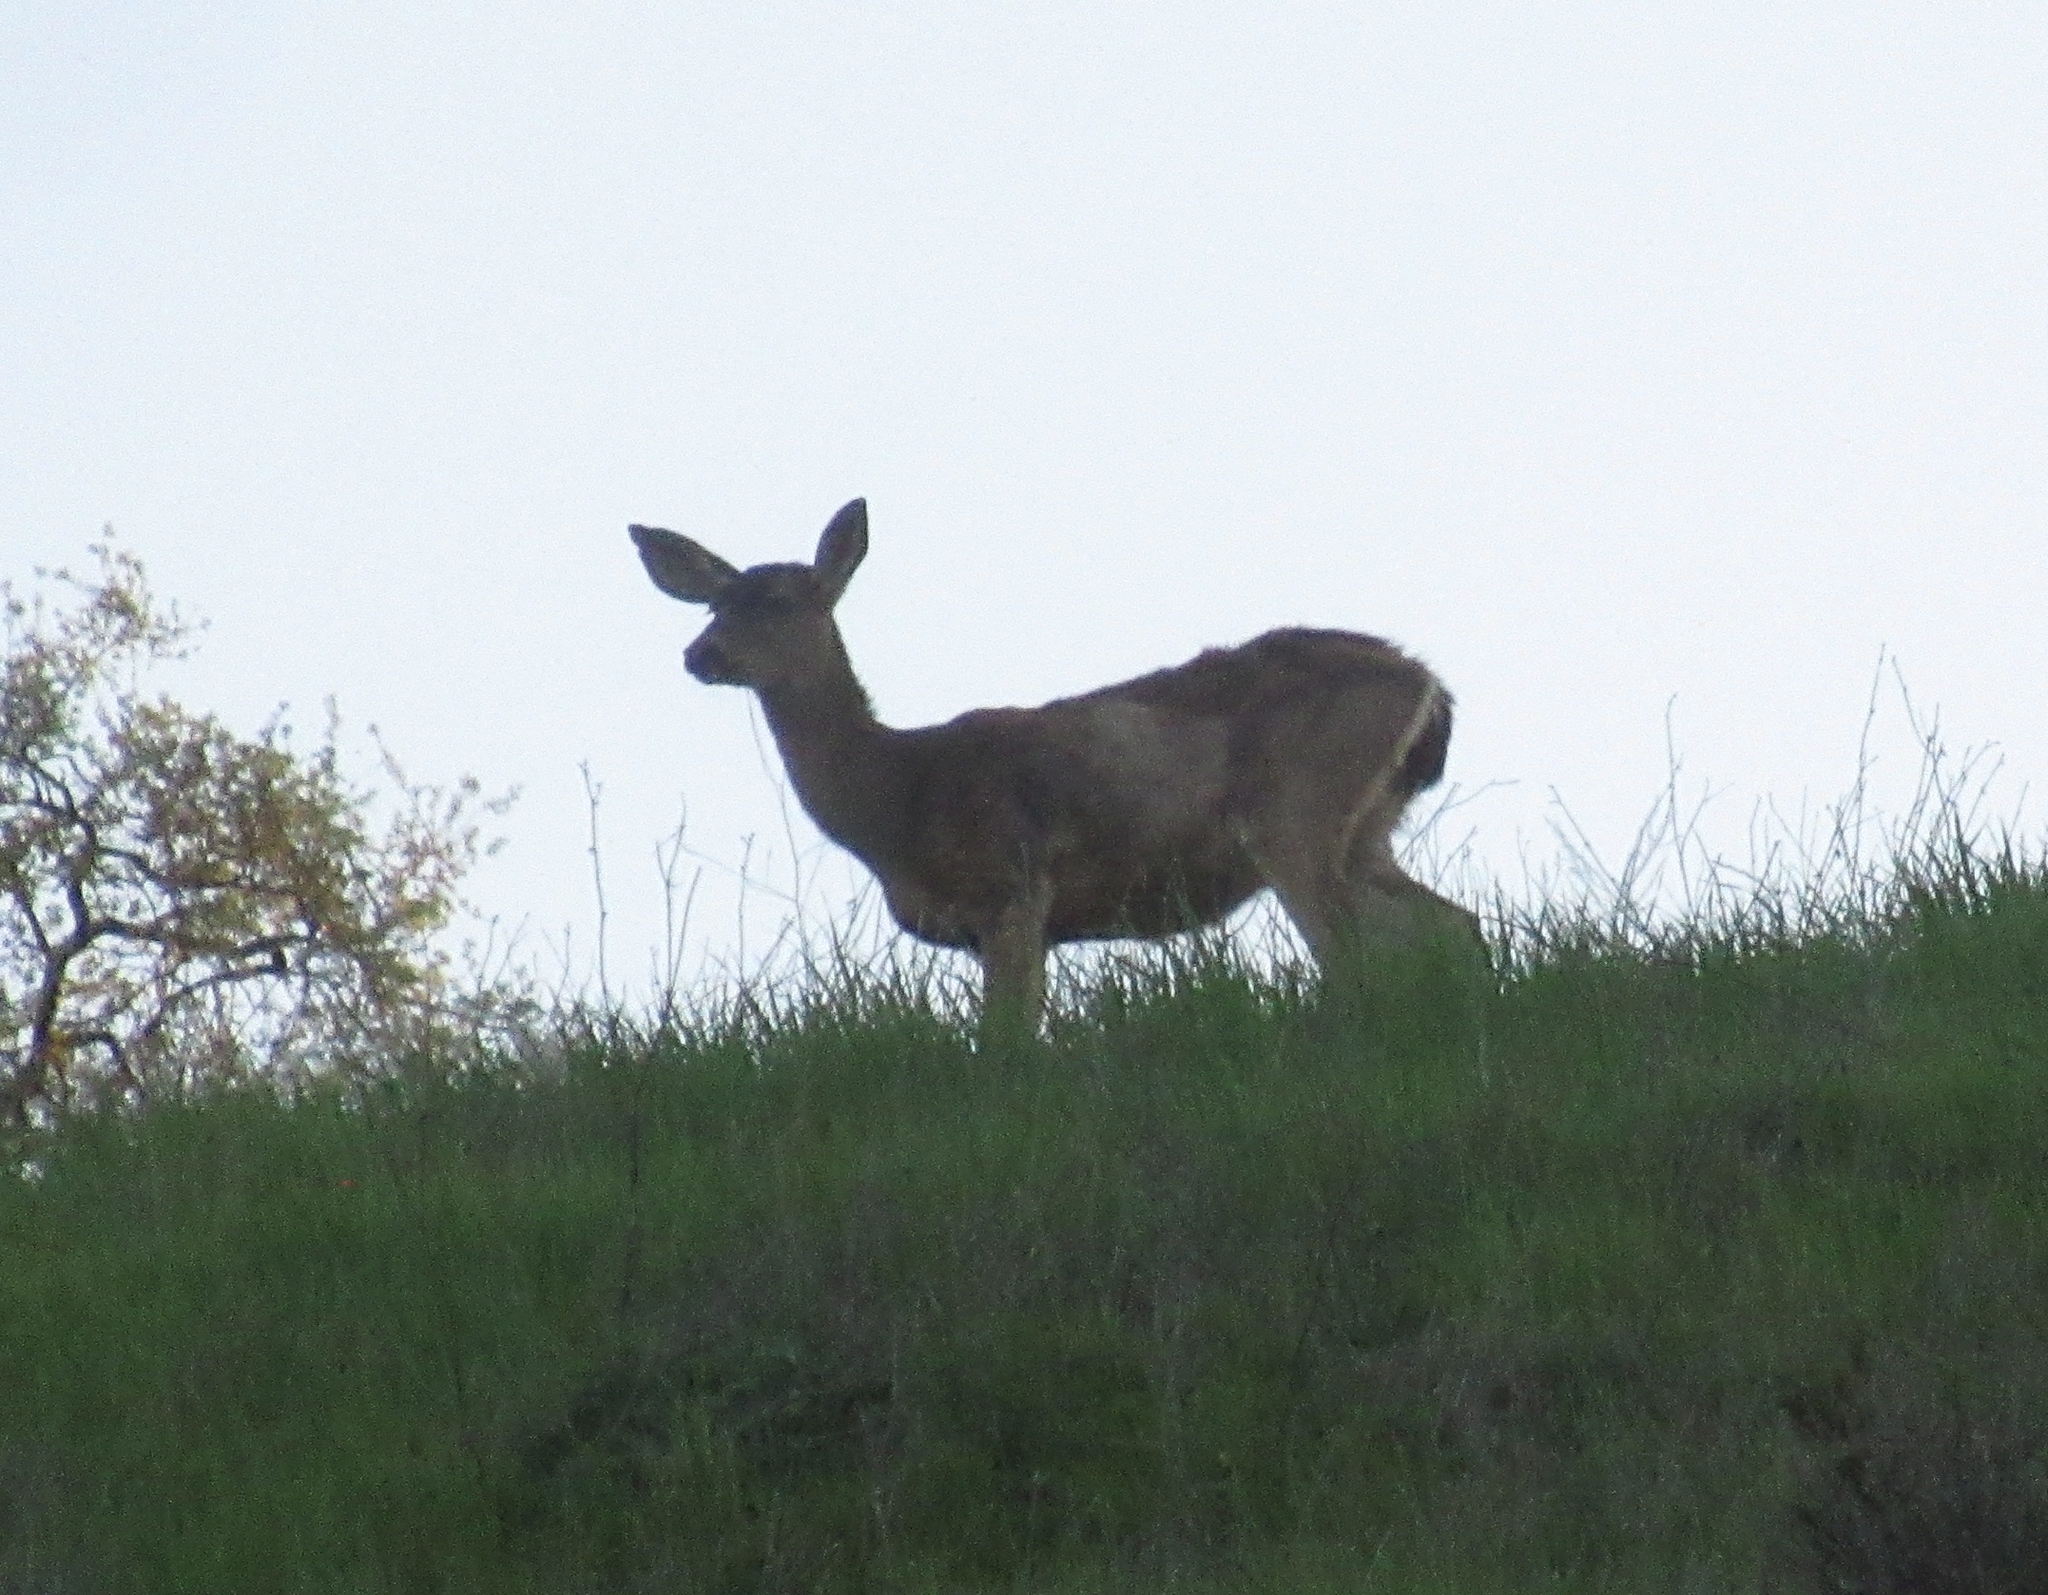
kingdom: Animalia
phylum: Chordata
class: Mammalia
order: Artiodactyla
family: Cervidae
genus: Odocoileus
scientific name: Odocoileus hemionus
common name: Mule deer
